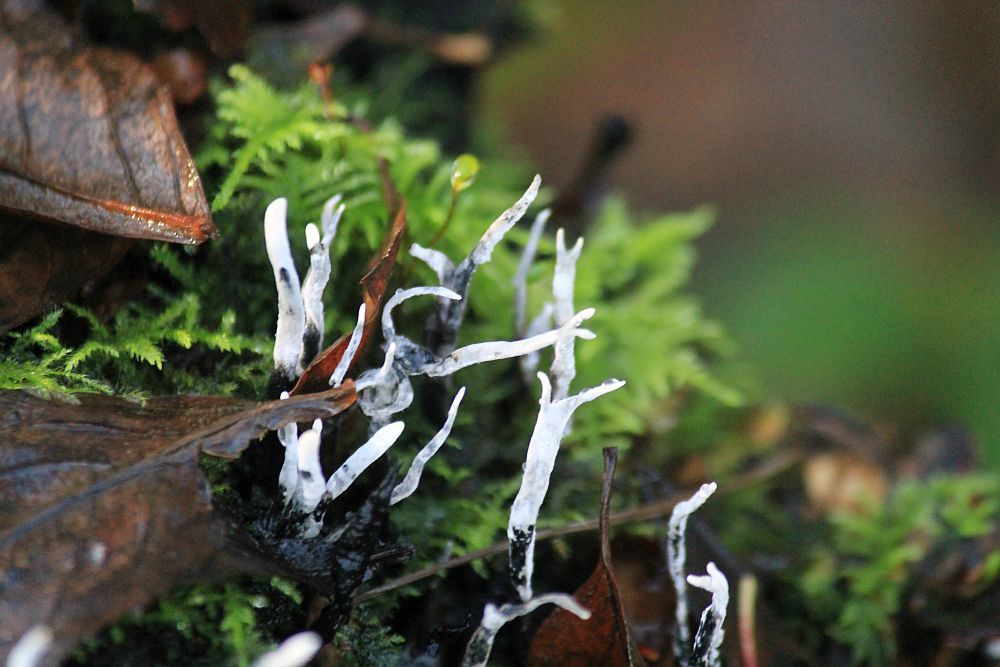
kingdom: Fungi
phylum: Ascomycota
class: Sordariomycetes
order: Xylariales
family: Xylariaceae
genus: Xylaria
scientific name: Xylaria hypoxylon
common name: Candle-snuff fungus
